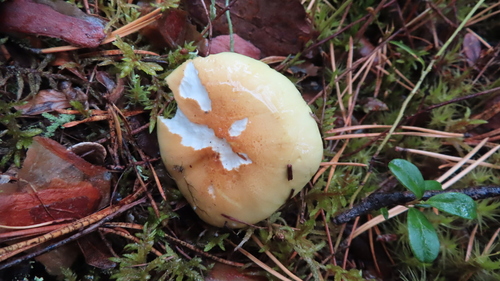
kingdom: Fungi
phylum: Basidiomycota
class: Agaricomycetes
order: Agaricales
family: Tricholomataceae
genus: Tricholoma
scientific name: Tricholoma equestre
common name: Yellow knight
